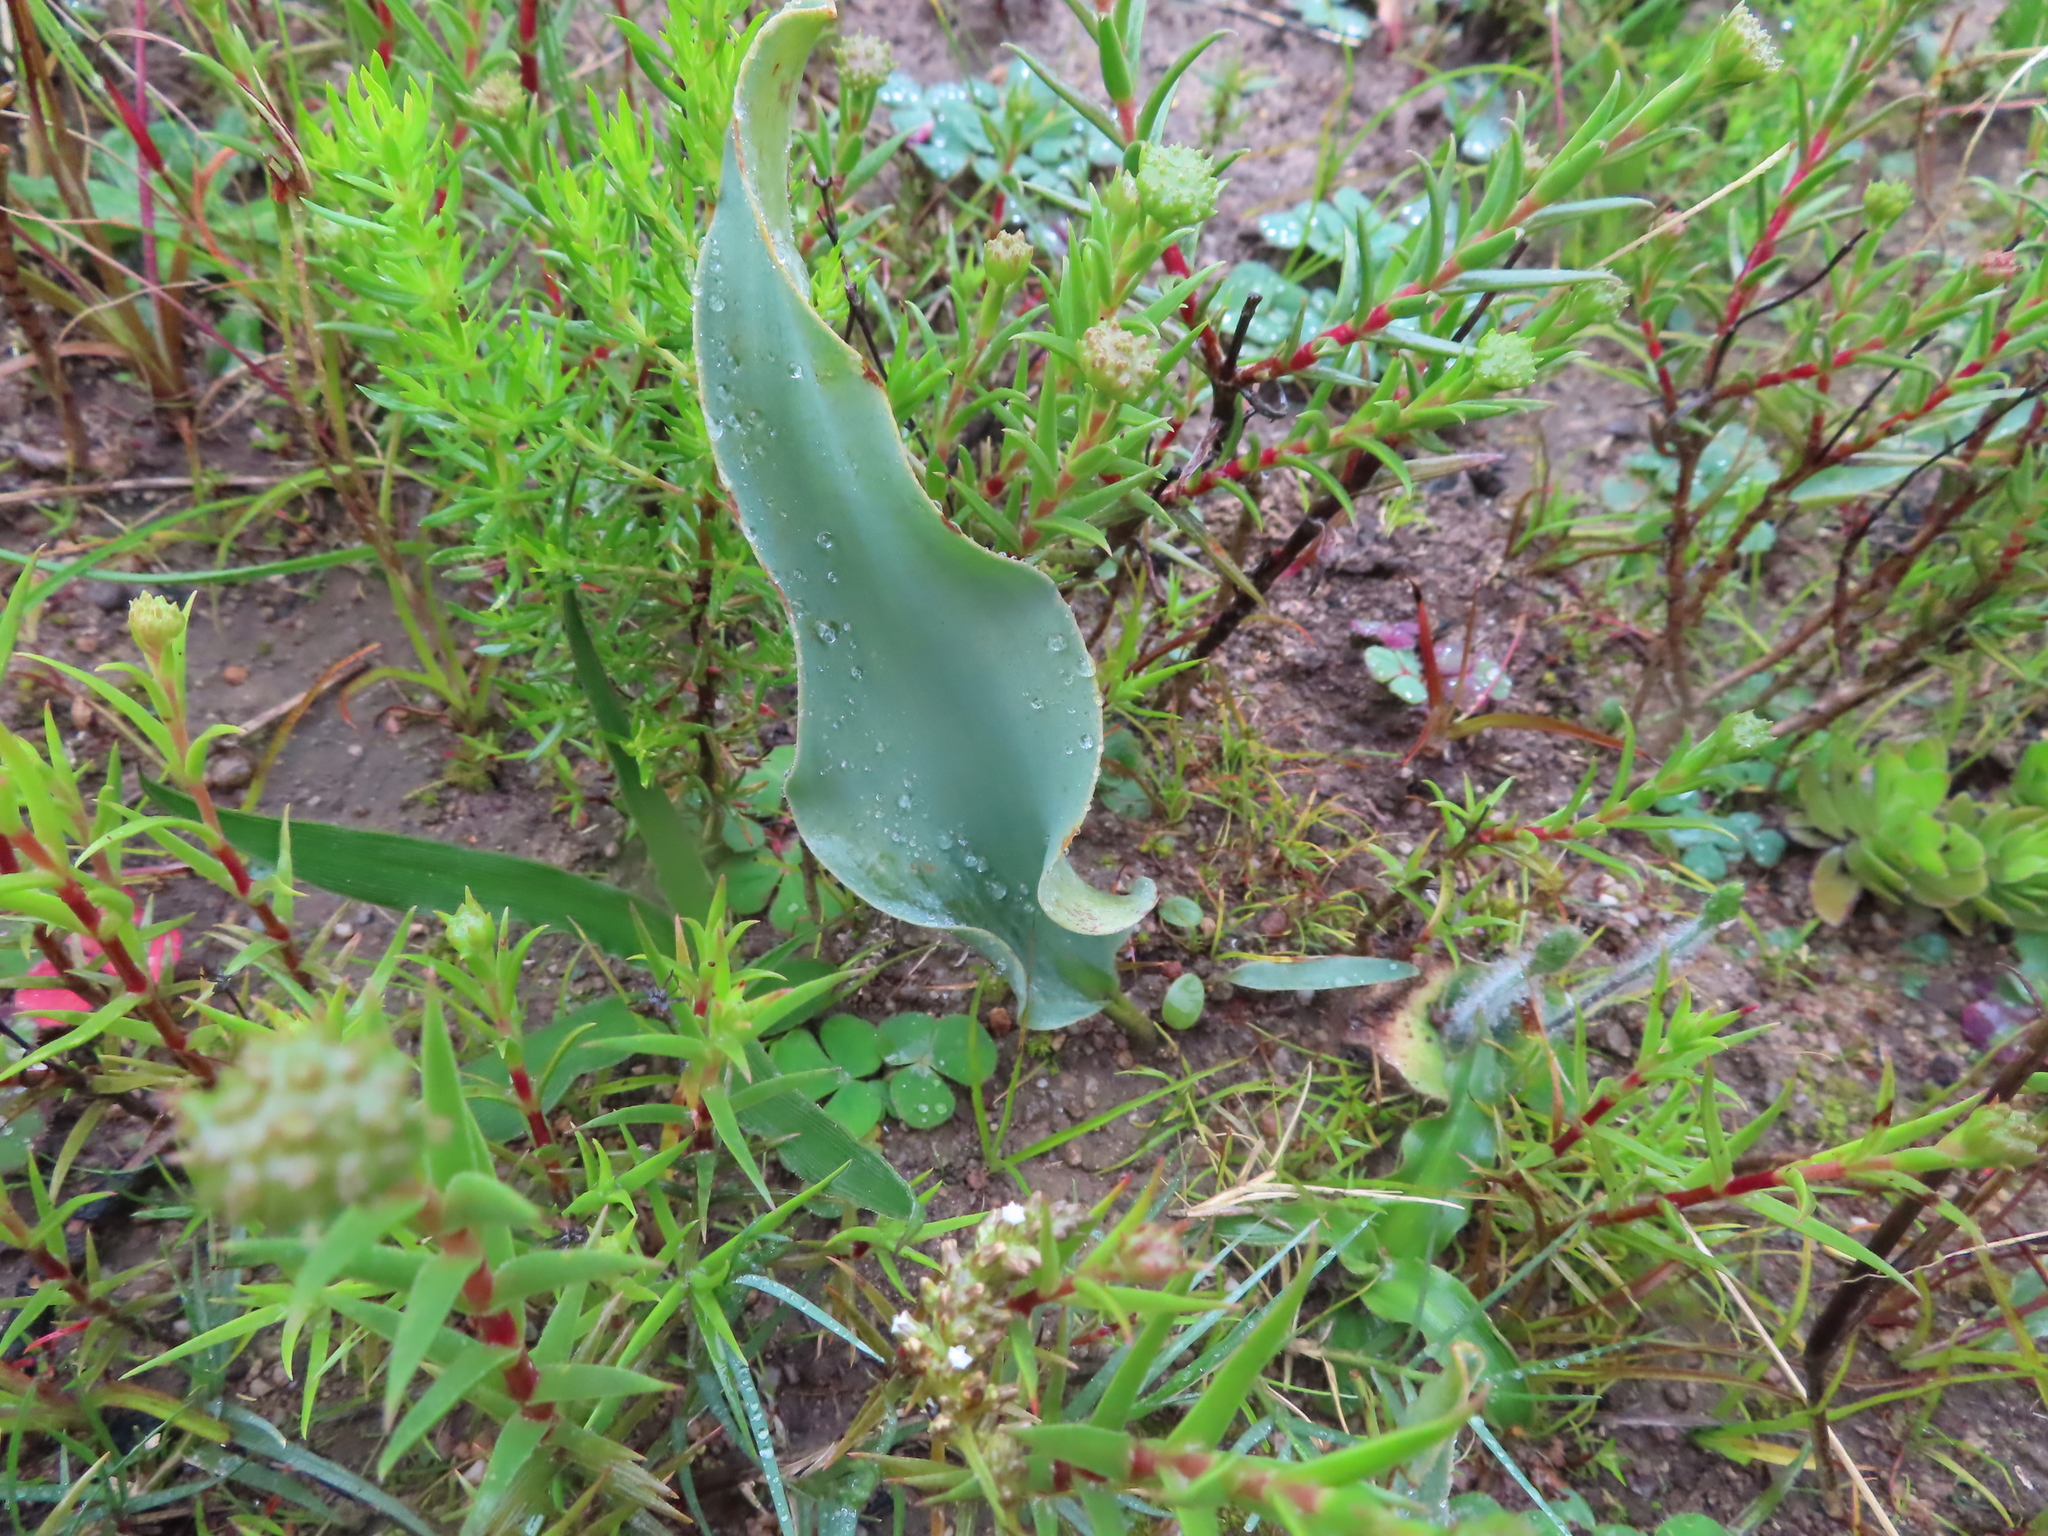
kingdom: Plantae
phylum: Tracheophyta
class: Liliopsida
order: Asparagales
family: Asparagaceae
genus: Eriospermum
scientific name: Eriospermum lanceifolium
